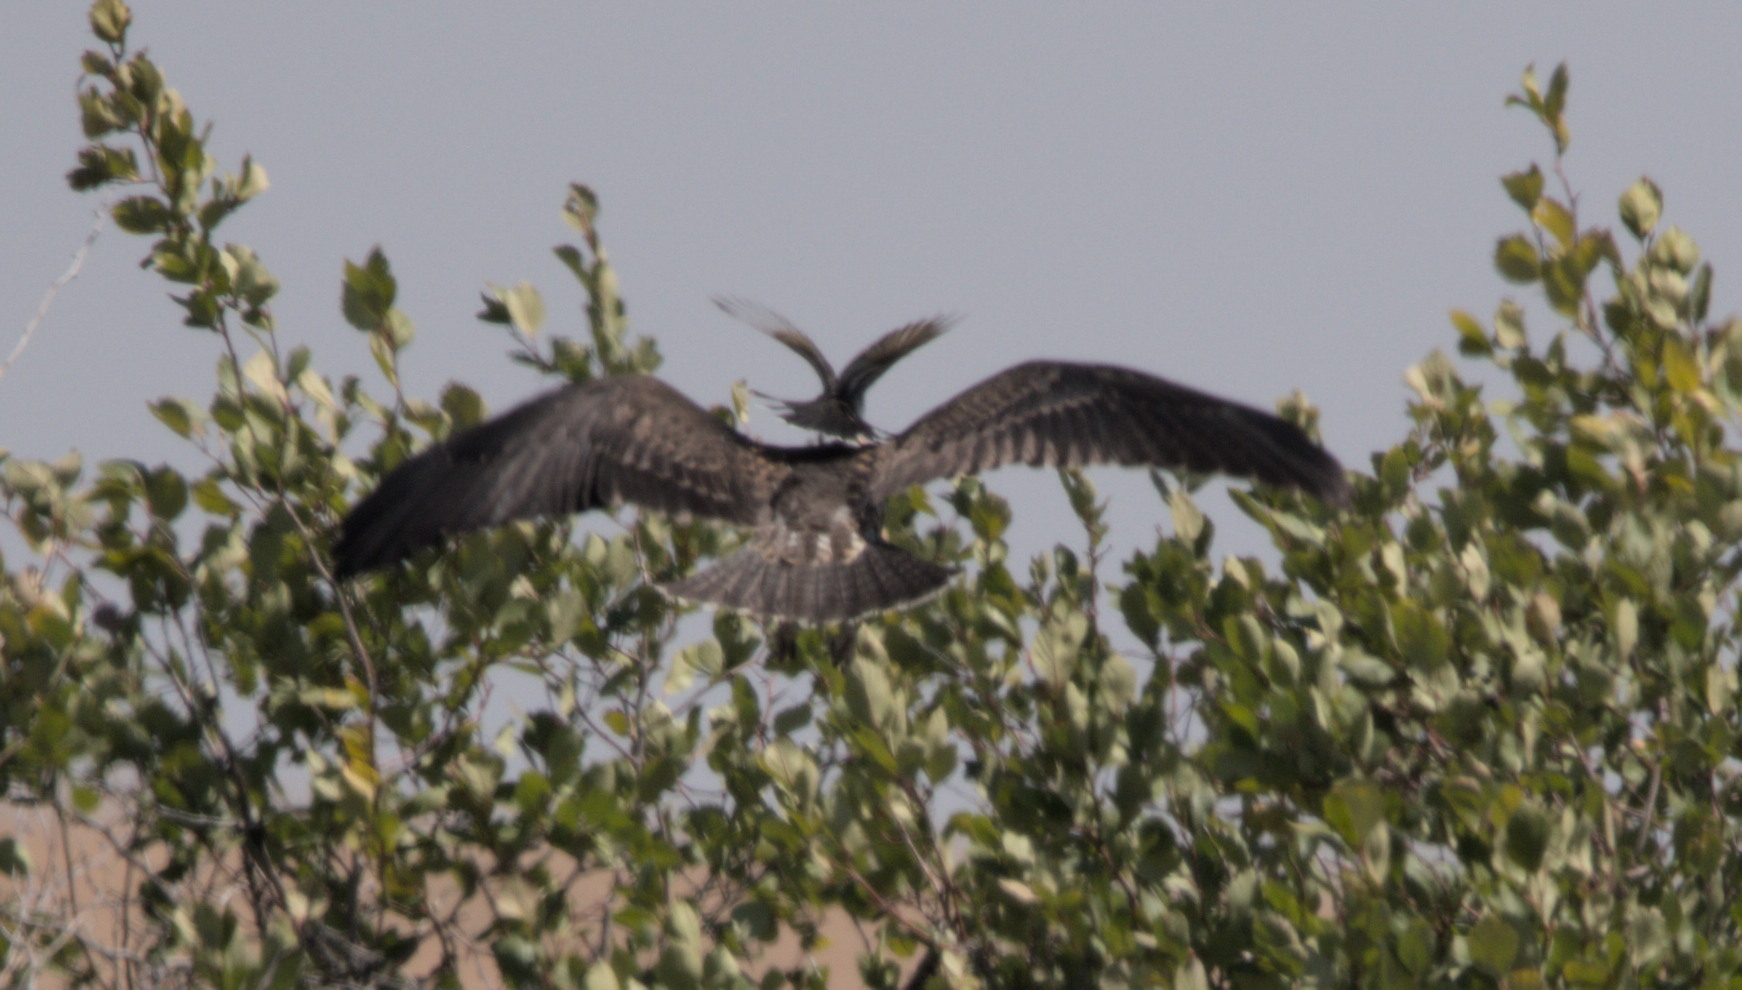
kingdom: Animalia
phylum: Chordata
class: Aves
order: Passeriformes
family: Tyrannidae
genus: Tyrannus
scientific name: Tyrannus tyrannus
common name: Eastern kingbird
